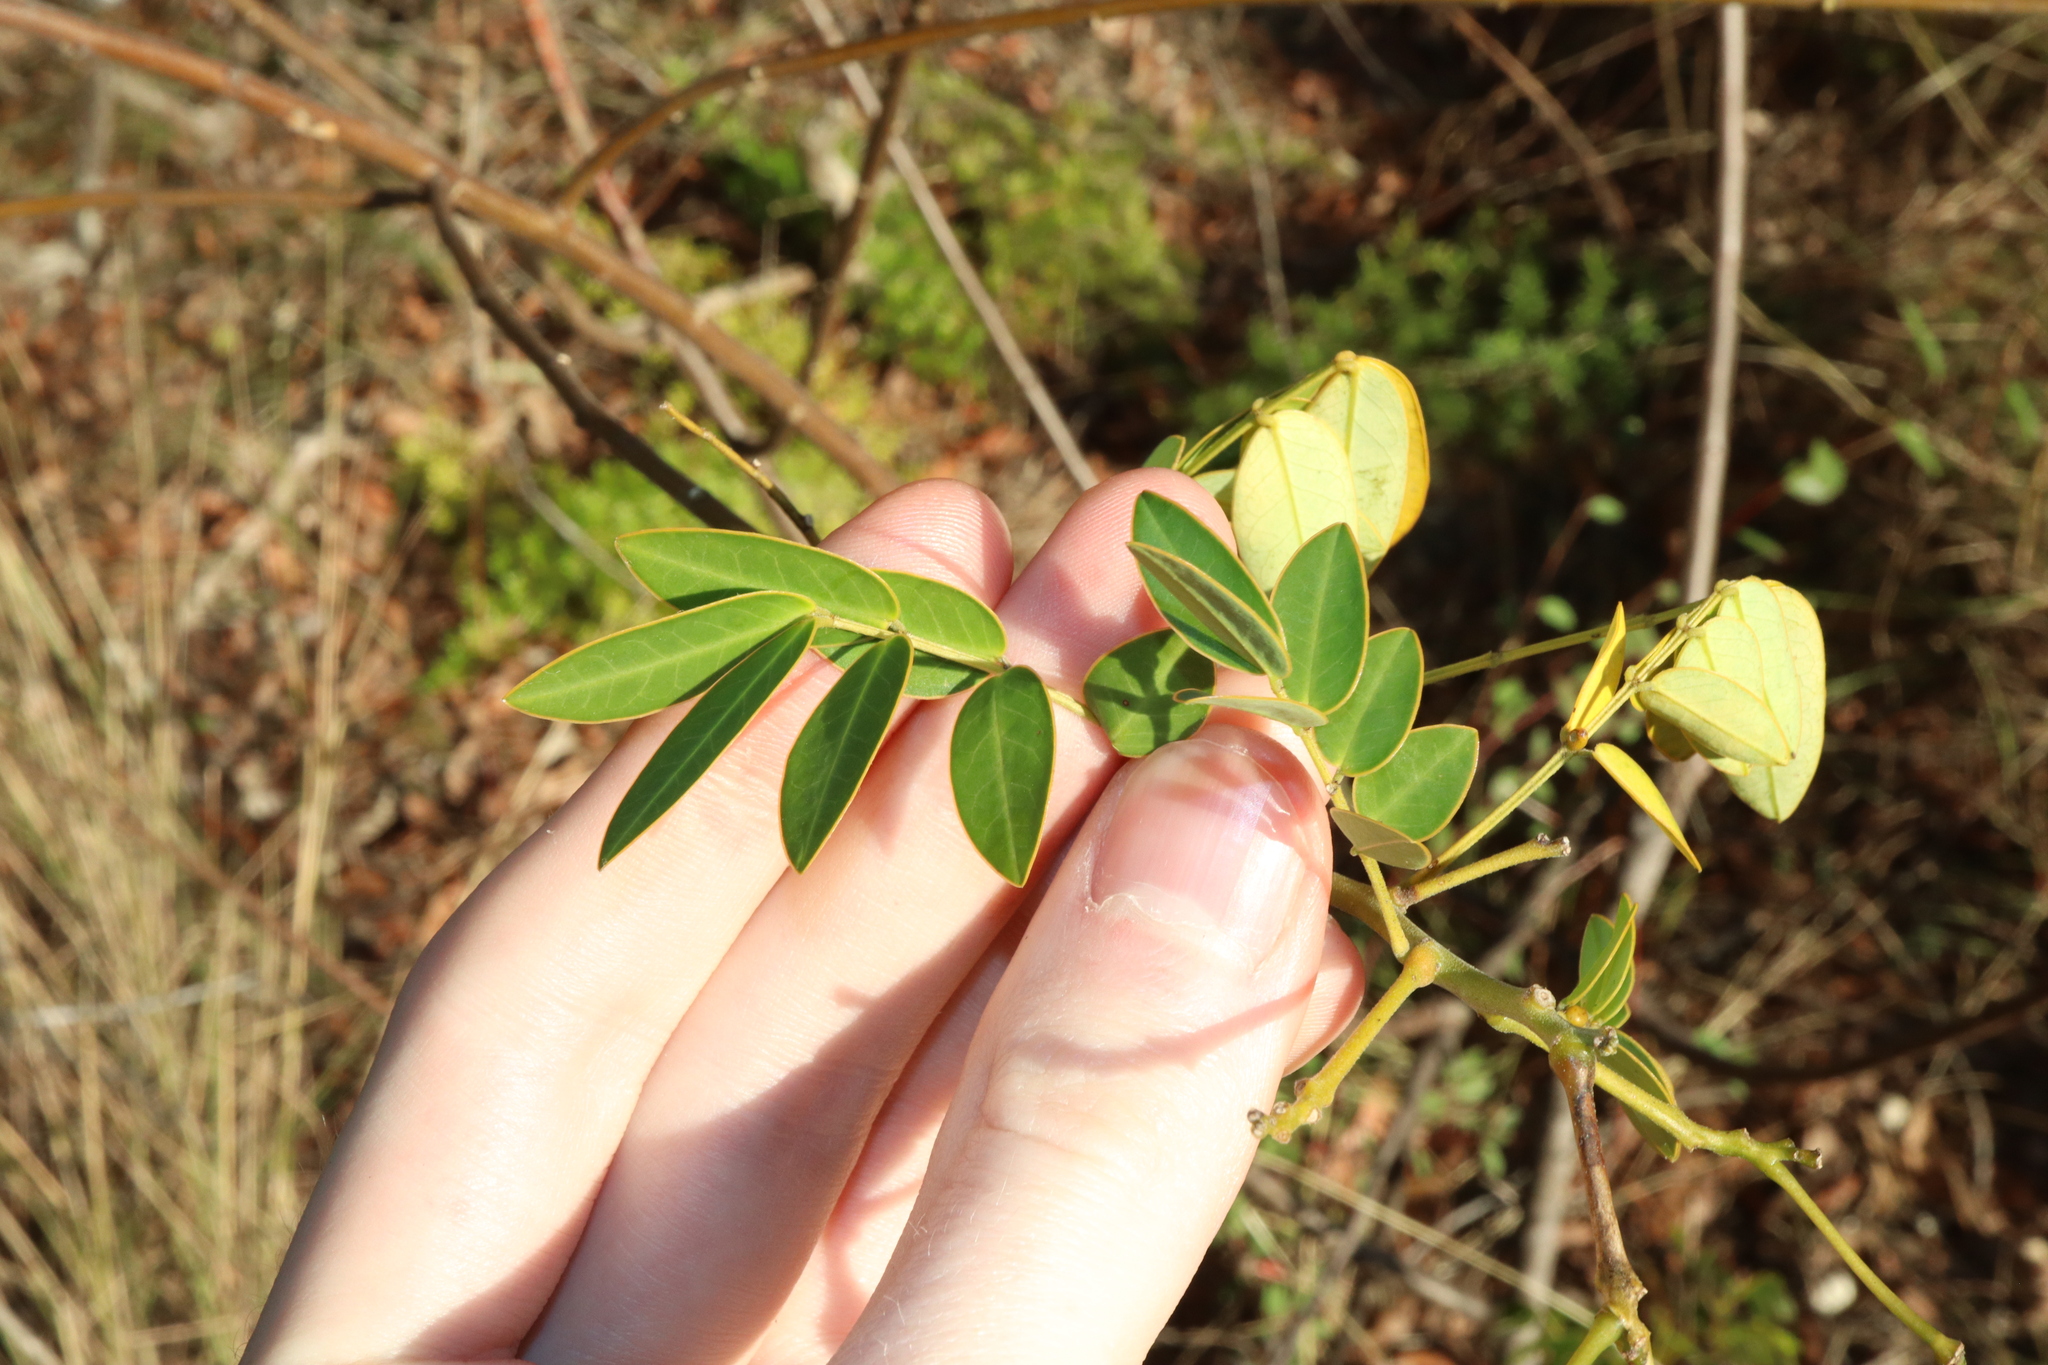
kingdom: Plantae
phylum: Tracheophyta
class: Magnoliopsida
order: Fabales
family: Fabaceae
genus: Senna
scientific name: Senna pendula
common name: Easter cassia
